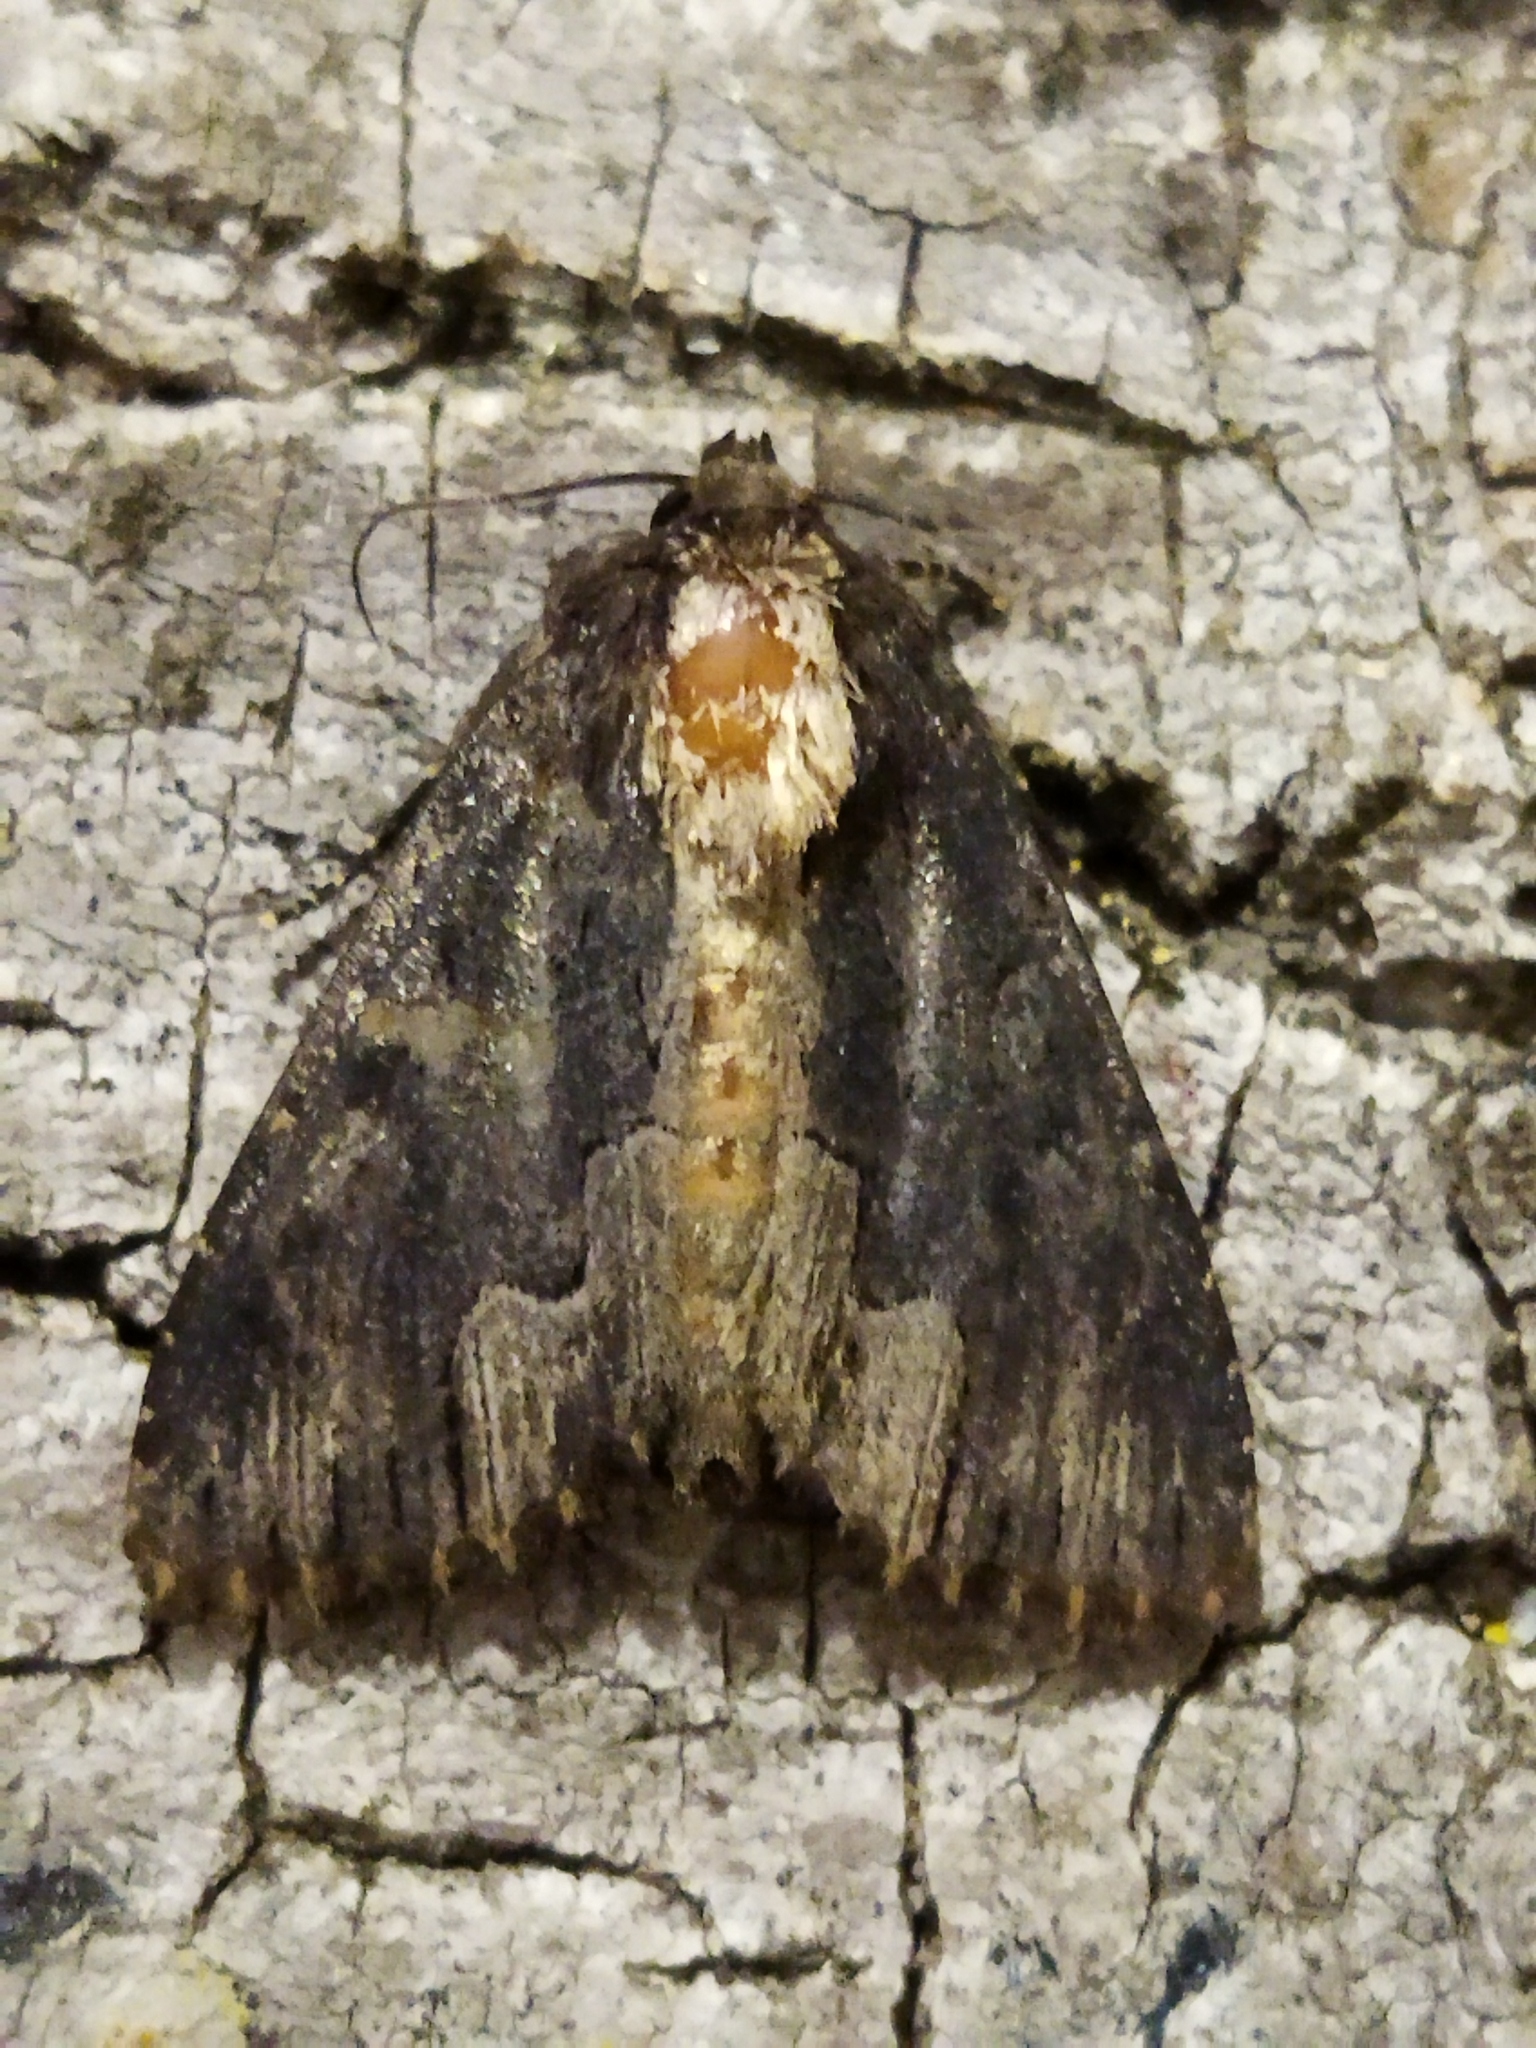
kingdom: Animalia
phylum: Arthropoda
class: Insecta
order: Lepidoptera
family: Noctuidae
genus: Dypterygia
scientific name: Dypterygia scabriuscula
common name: Bird's wing
